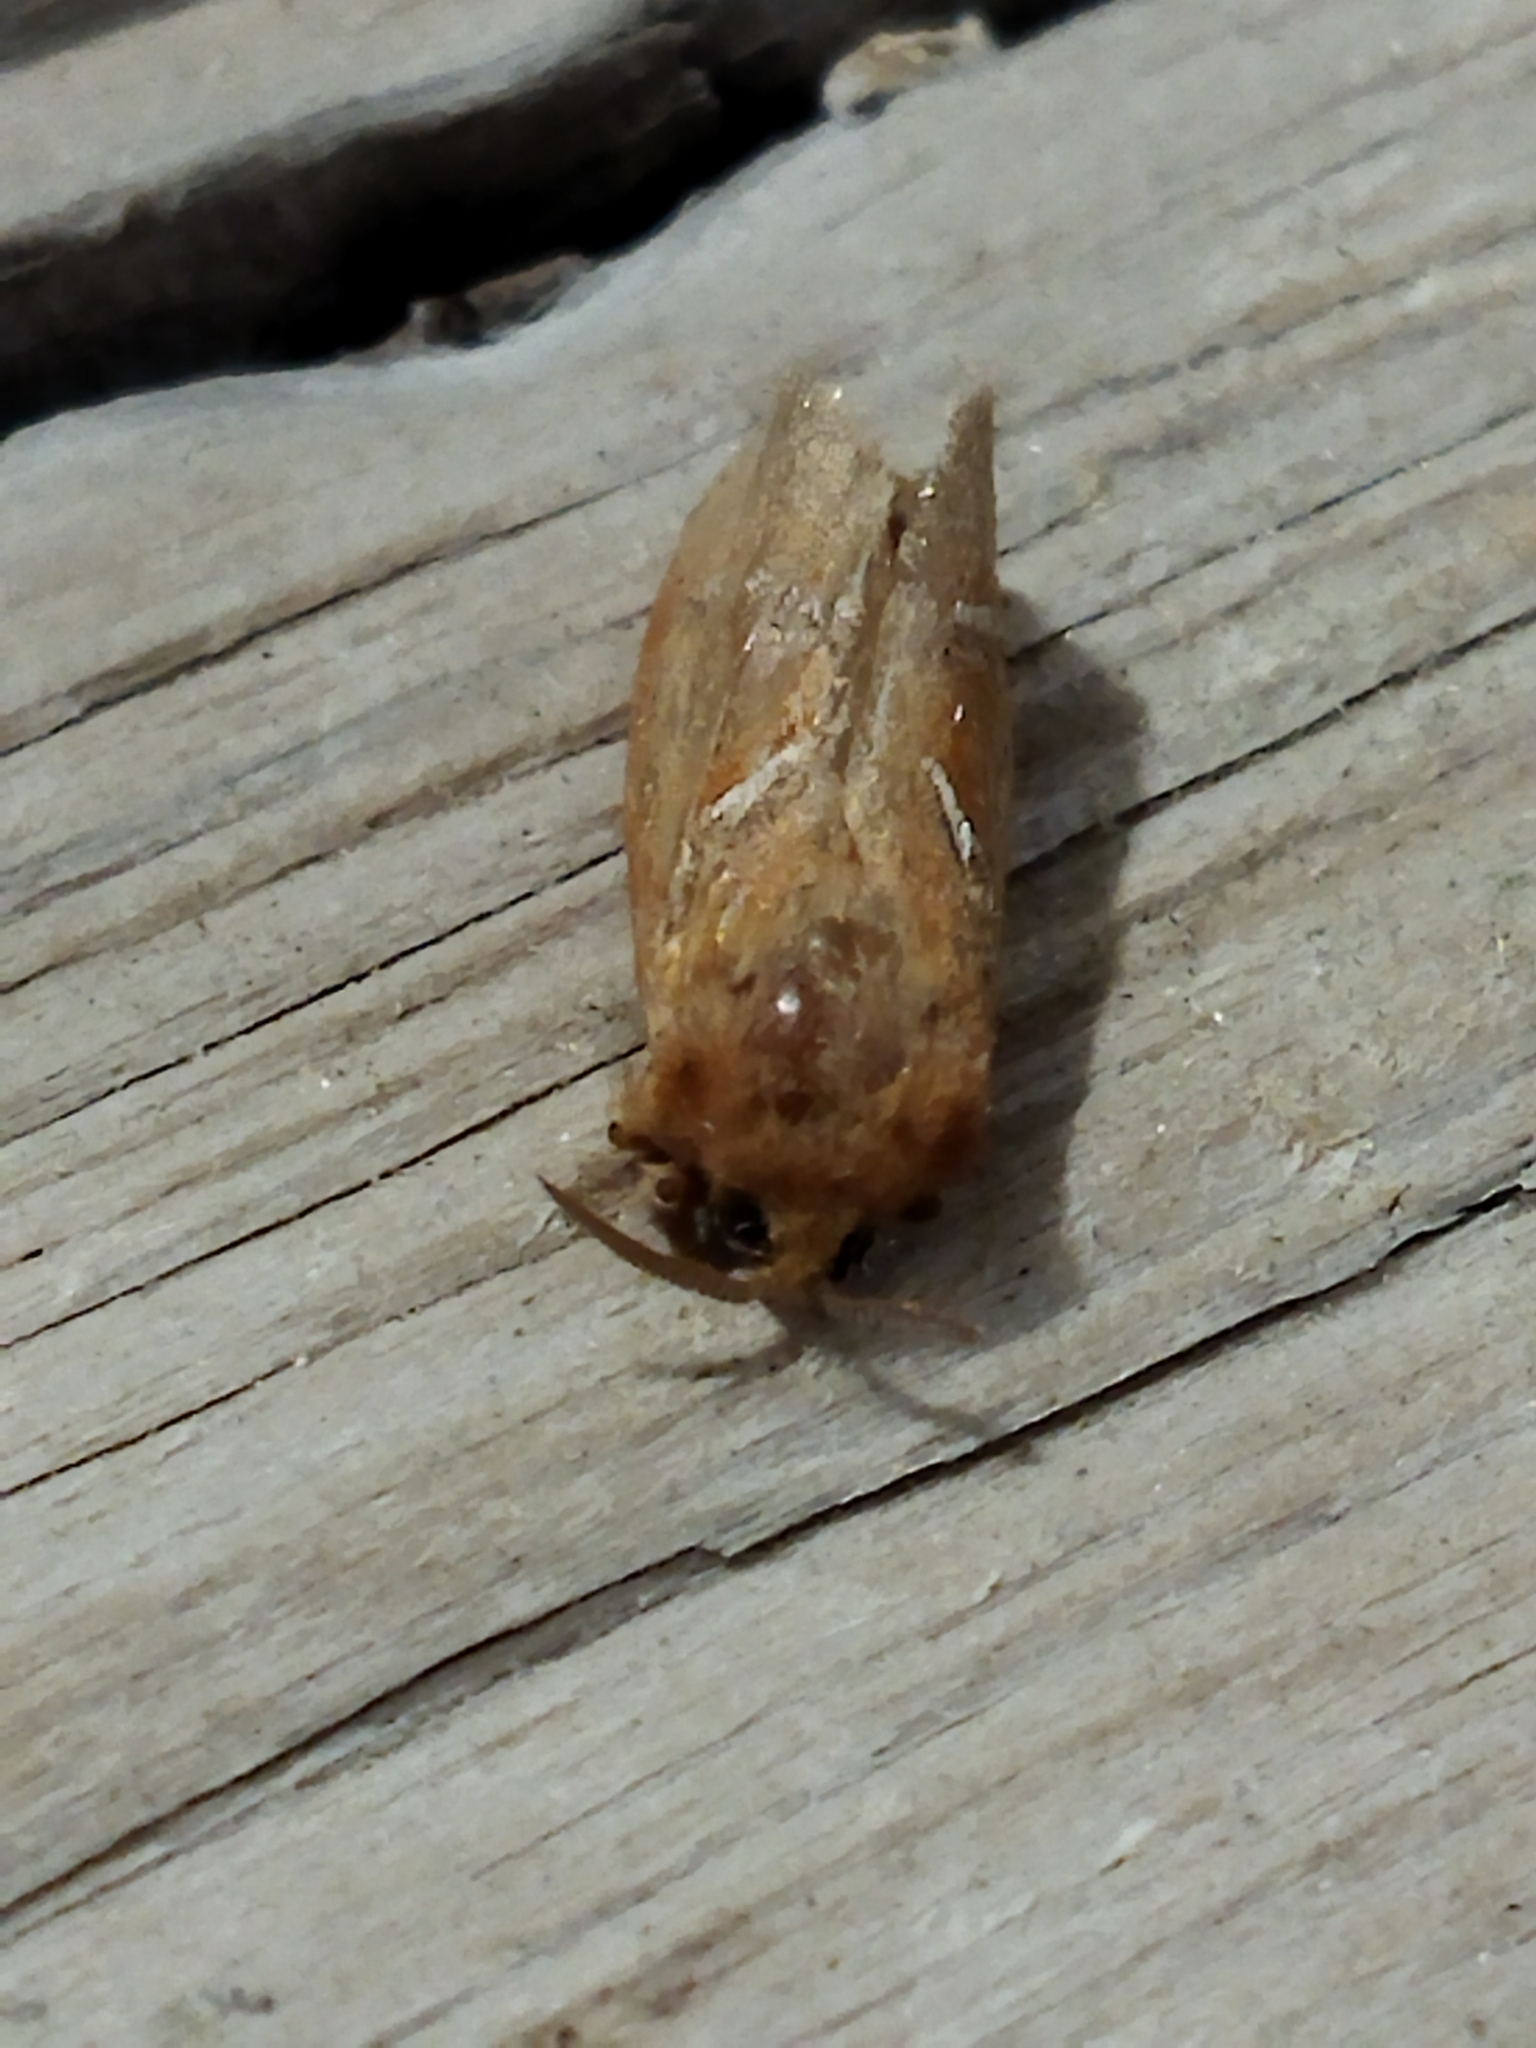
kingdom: Animalia
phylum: Arthropoda
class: Insecta
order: Lepidoptera
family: Hepialidae
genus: Triodia
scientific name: Triodia sylvina
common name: Orange swift
